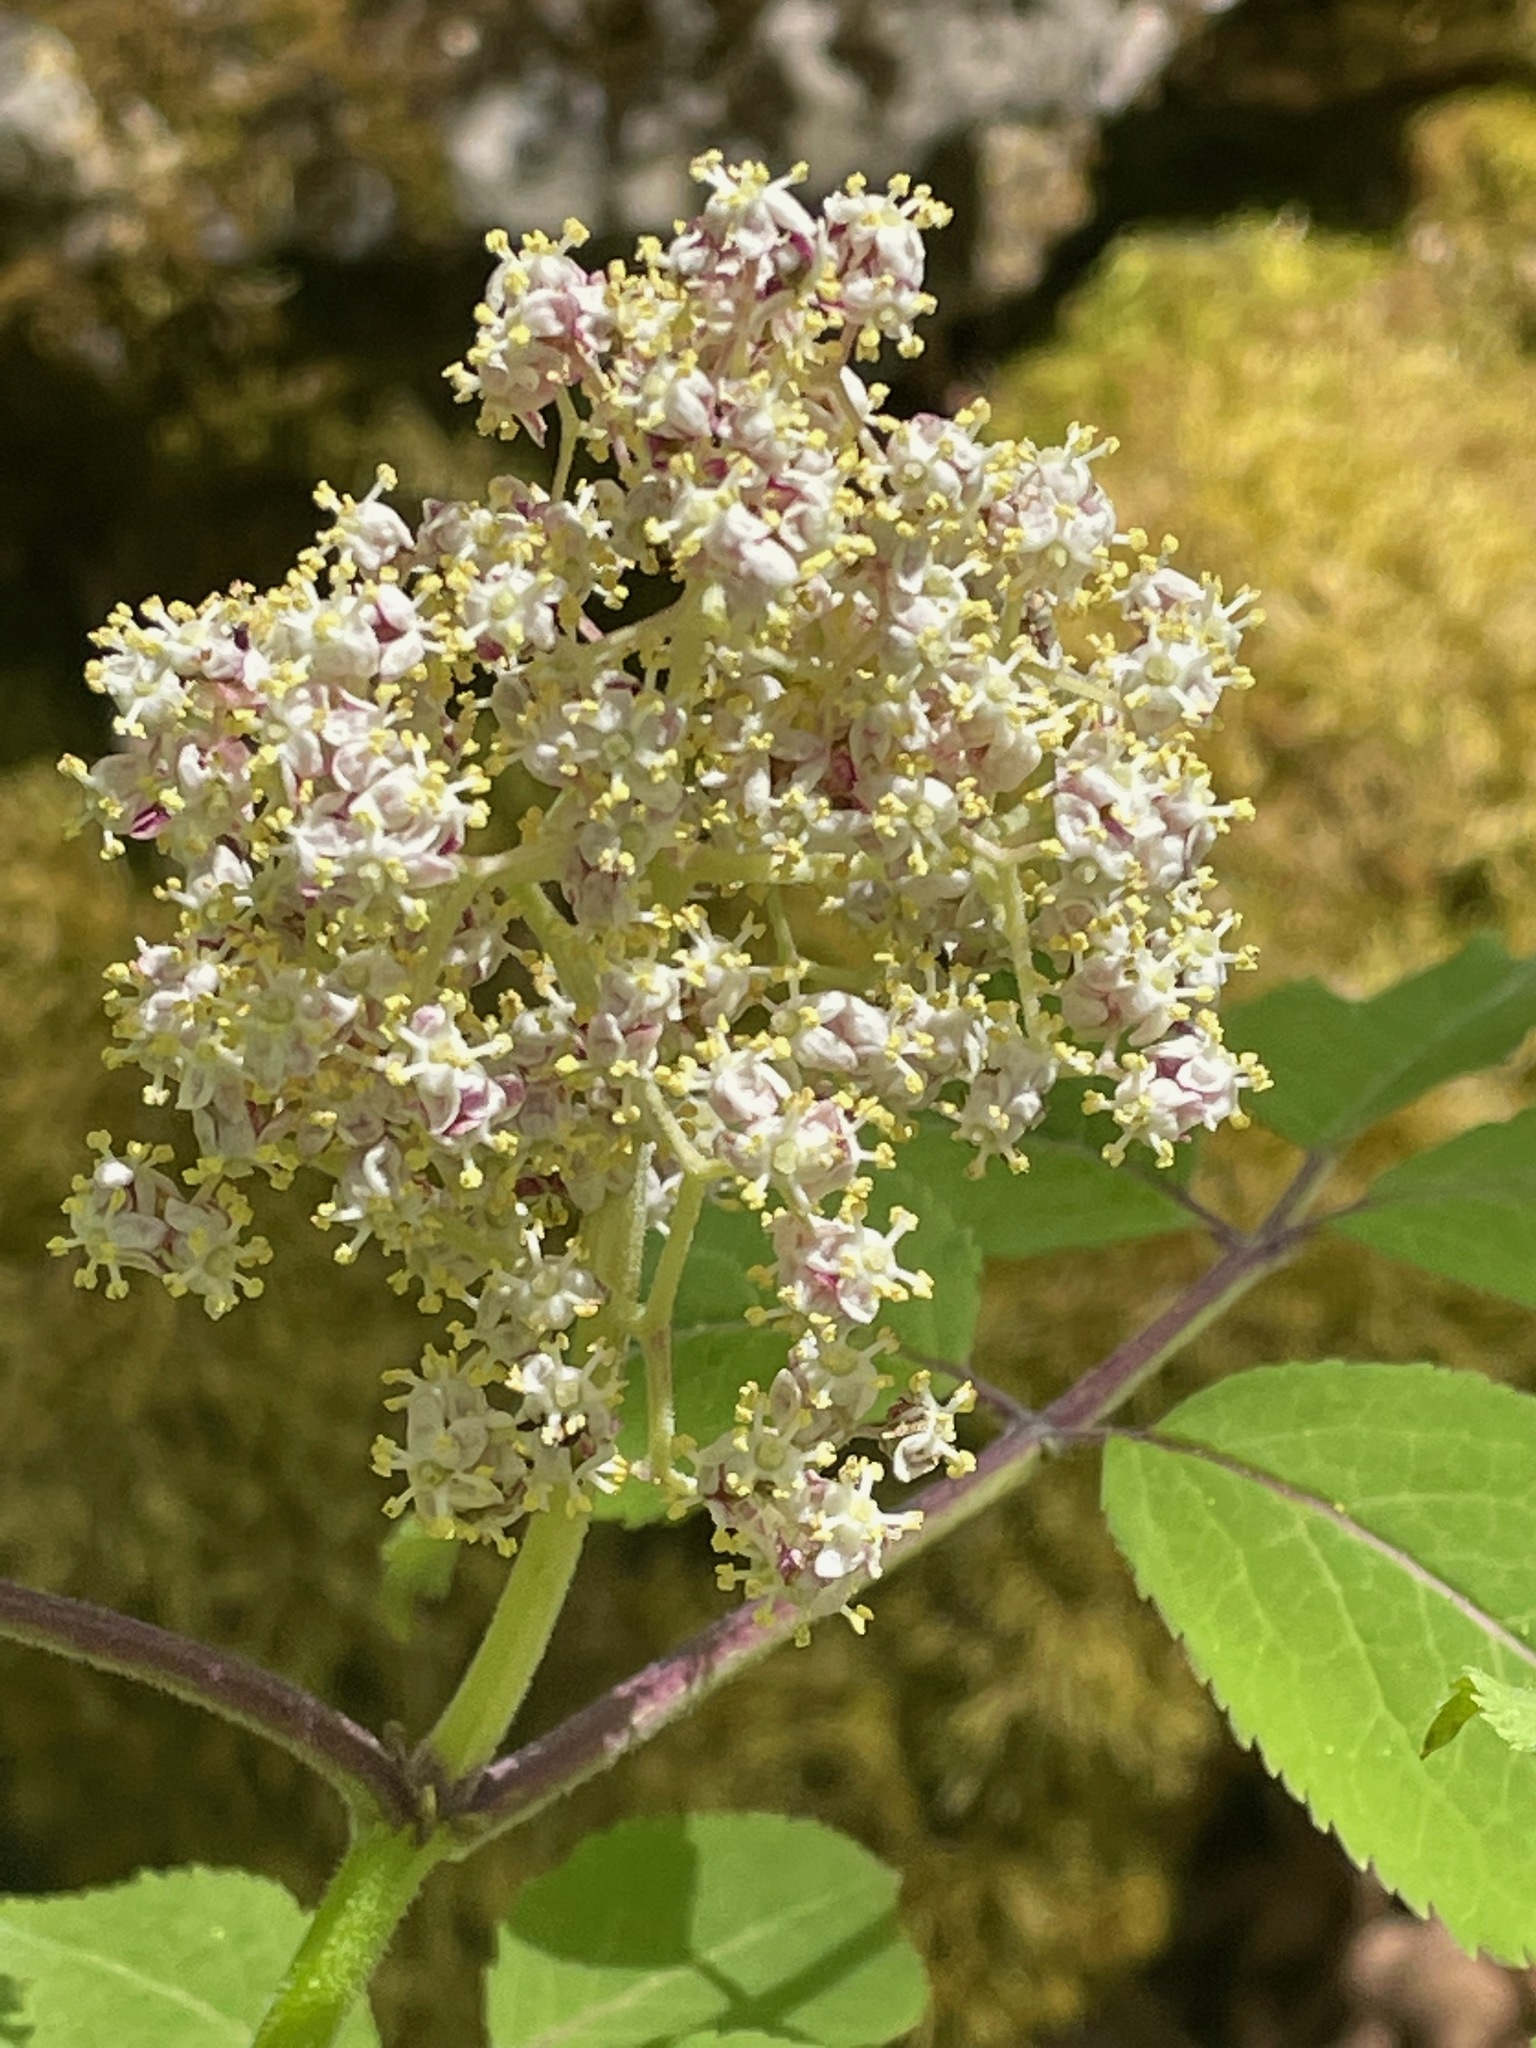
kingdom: Plantae
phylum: Tracheophyta
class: Magnoliopsida
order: Dipsacales
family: Viburnaceae
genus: Sambucus
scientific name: Sambucus racemosa
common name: Red-berried elder
